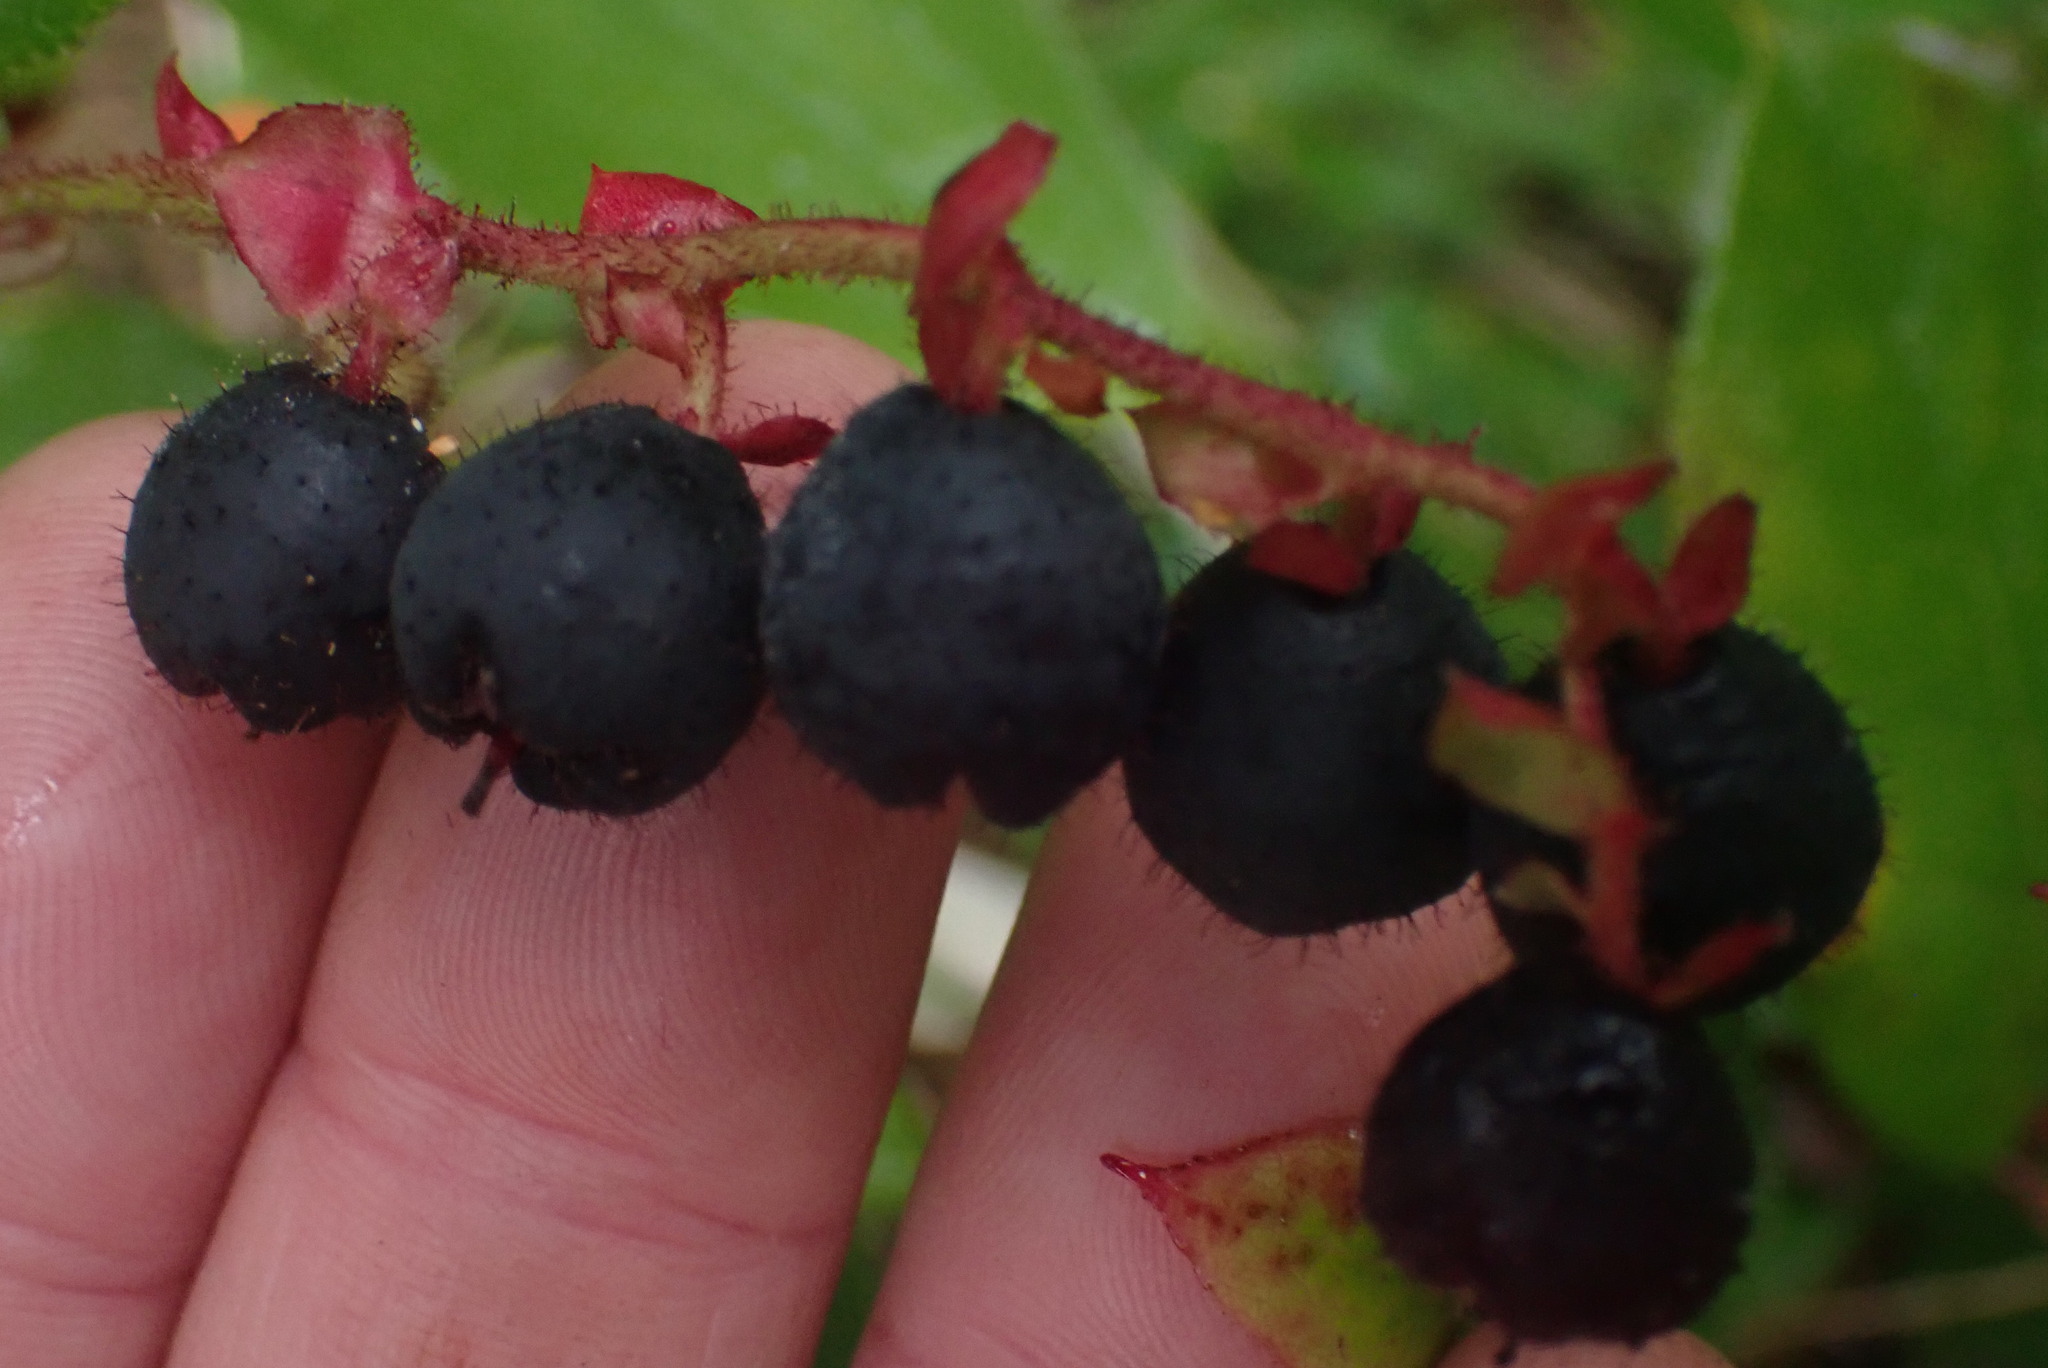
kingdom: Plantae
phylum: Tracheophyta
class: Magnoliopsida
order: Ericales
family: Ericaceae
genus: Gaultheria
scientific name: Gaultheria shallon
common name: Shallon
